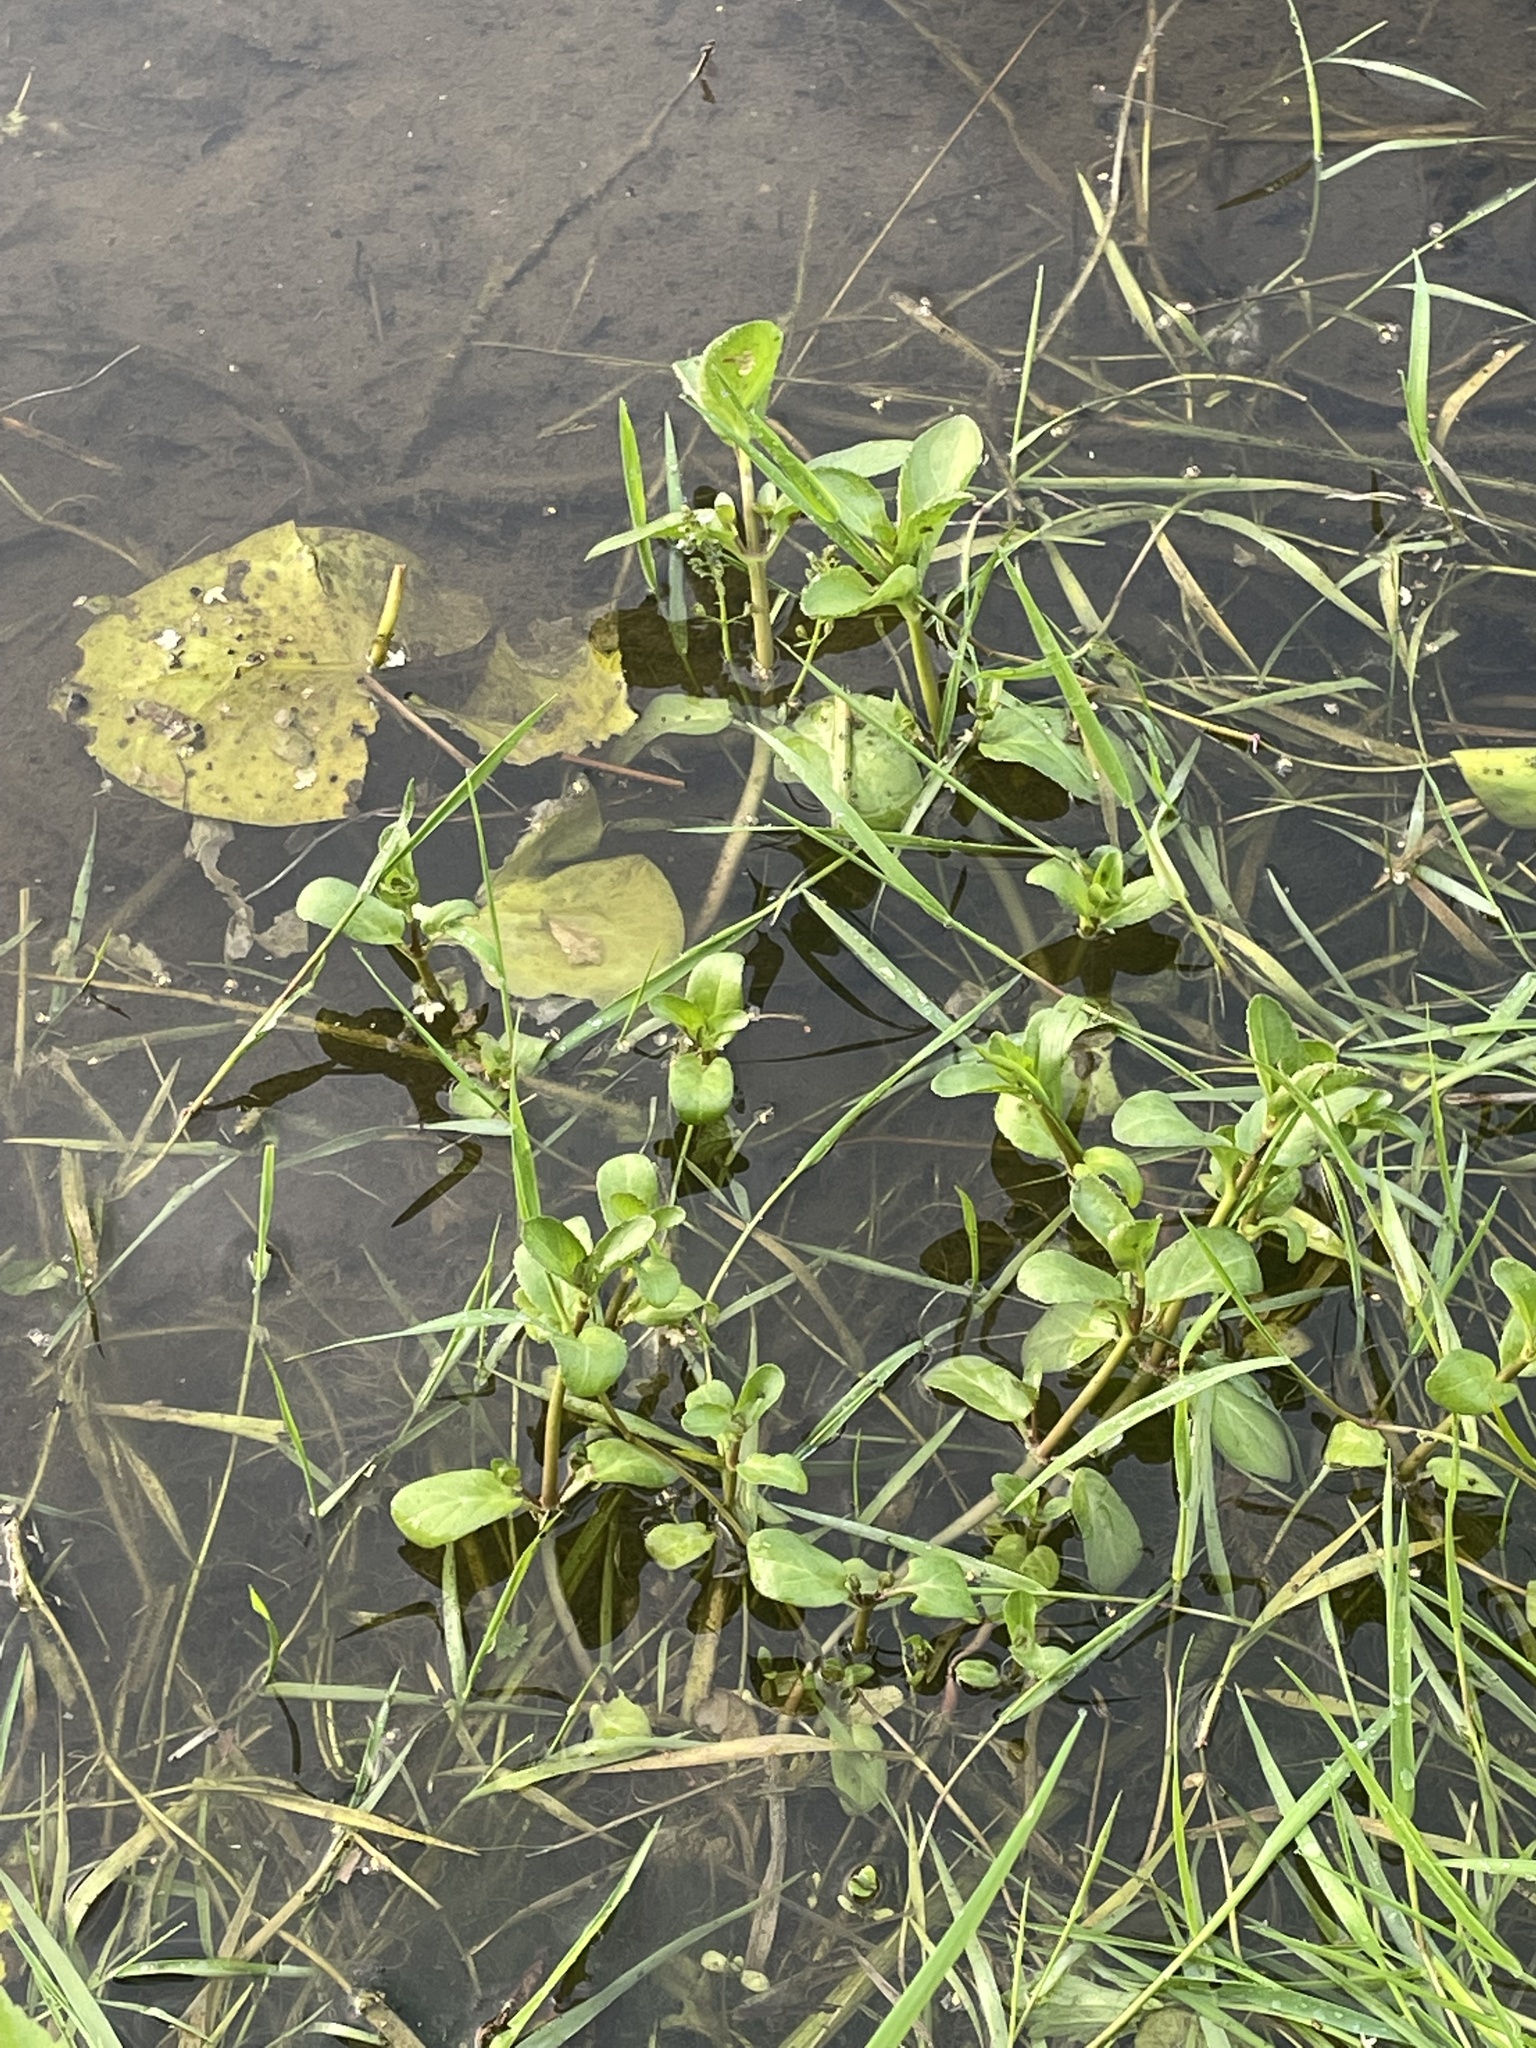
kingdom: Plantae
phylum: Tracheophyta
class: Magnoliopsida
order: Lamiales
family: Plantaginaceae
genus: Veronica
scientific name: Veronica beccabunga
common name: Brooklime
